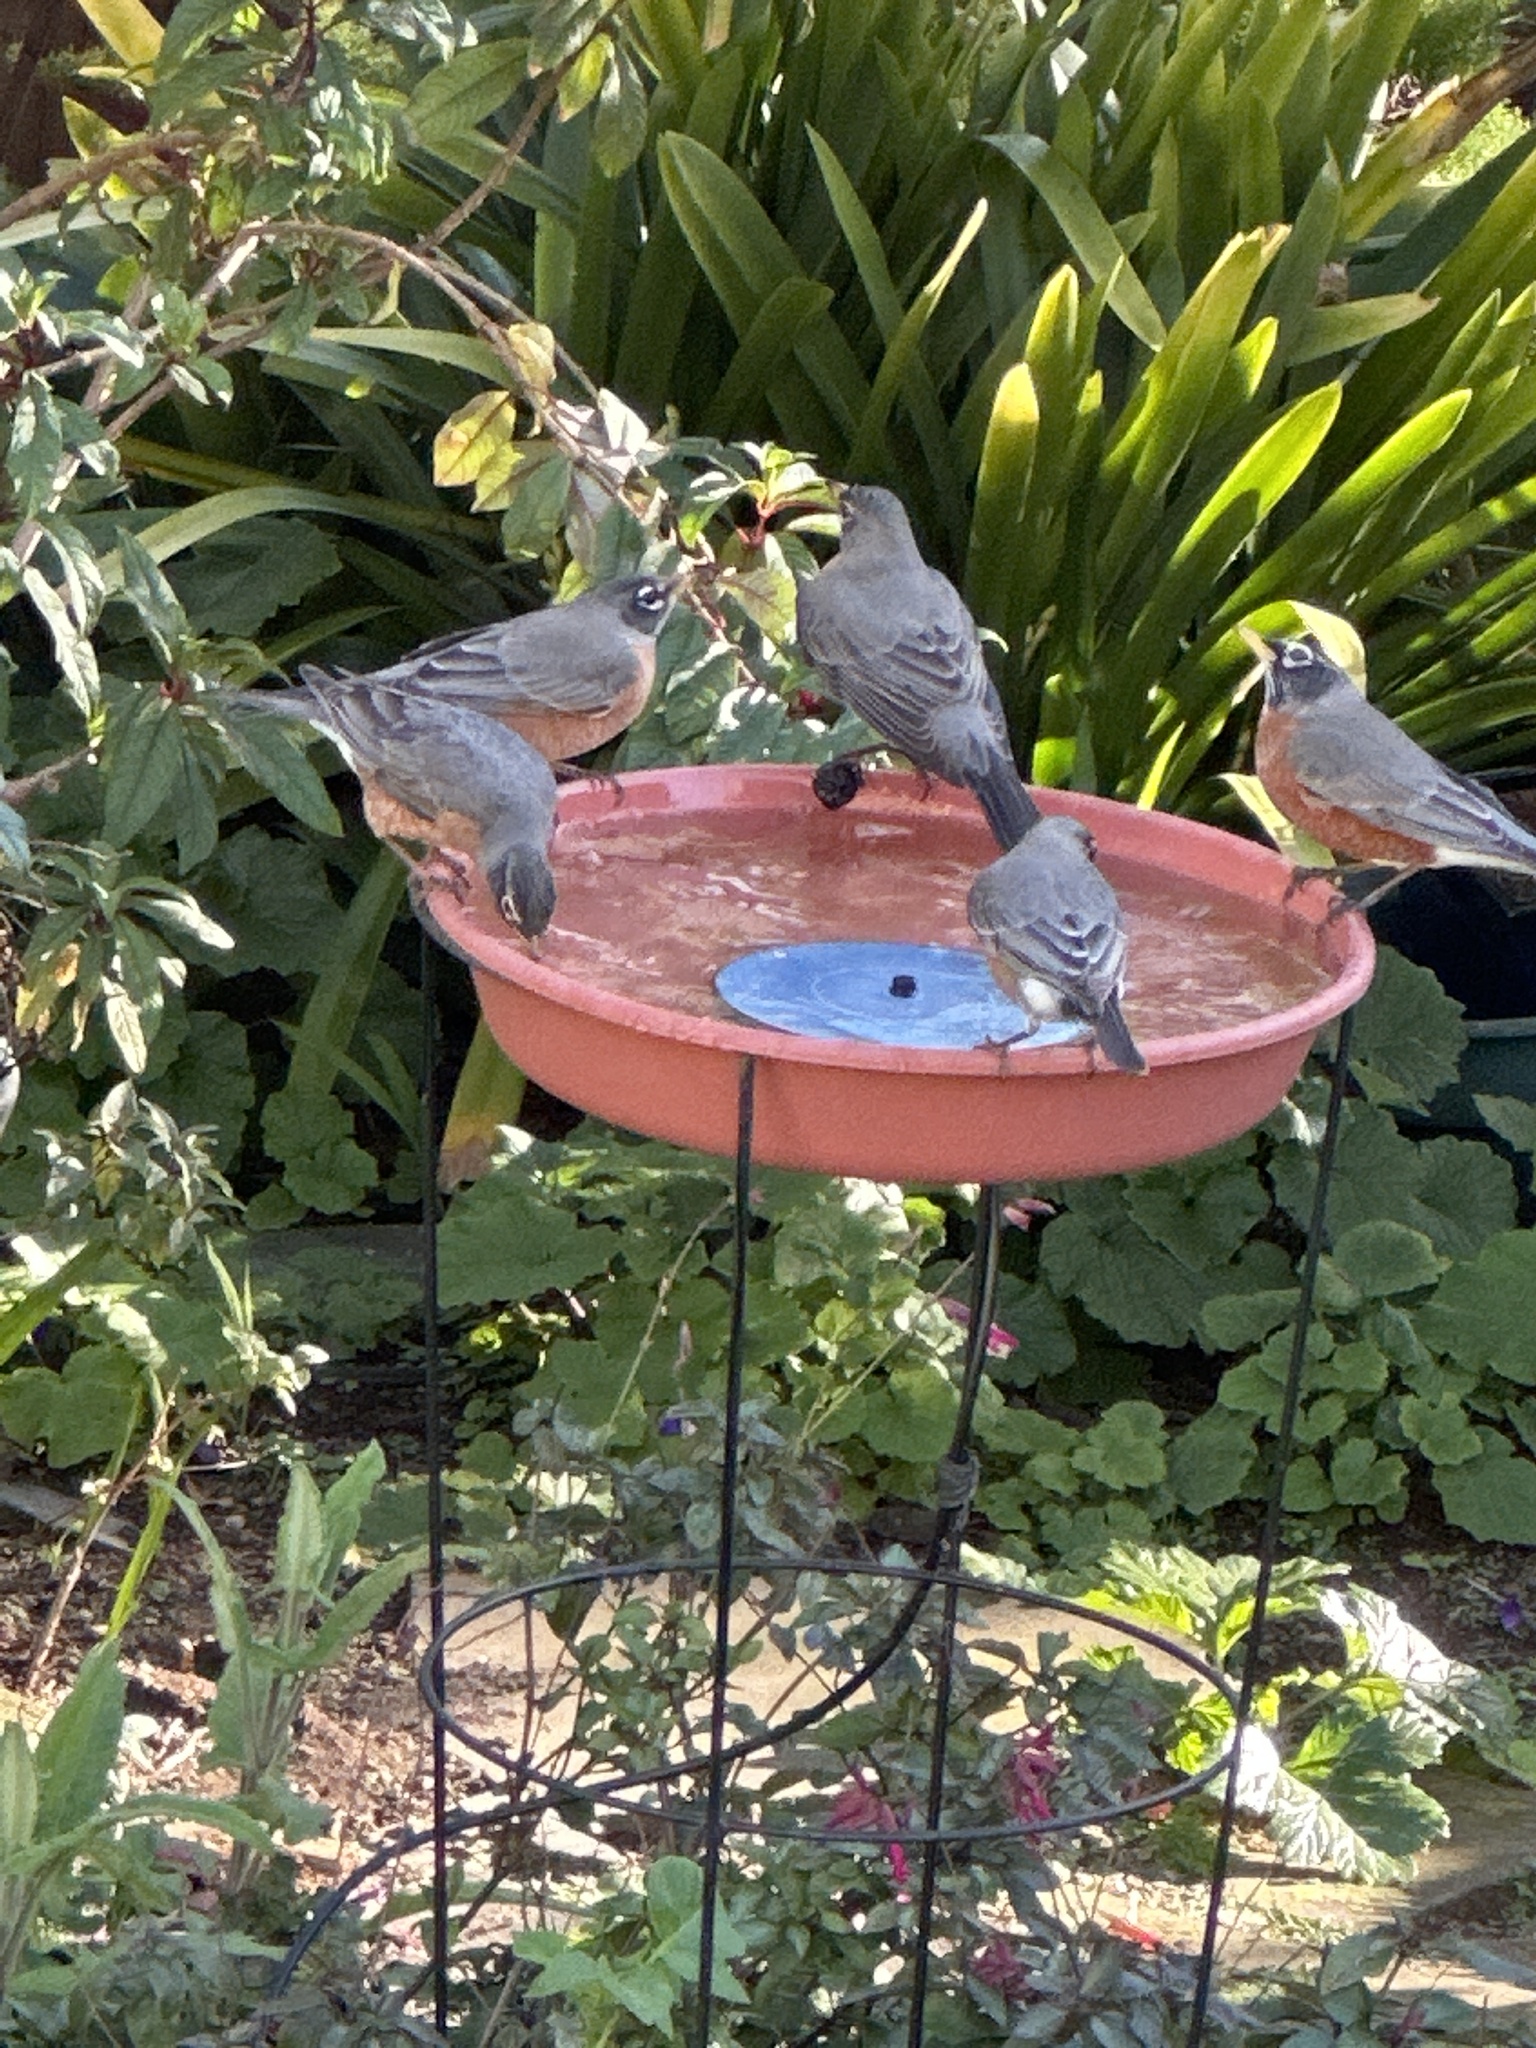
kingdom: Animalia
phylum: Chordata
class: Aves
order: Passeriformes
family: Turdidae
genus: Turdus
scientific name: Turdus migratorius
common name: American robin
